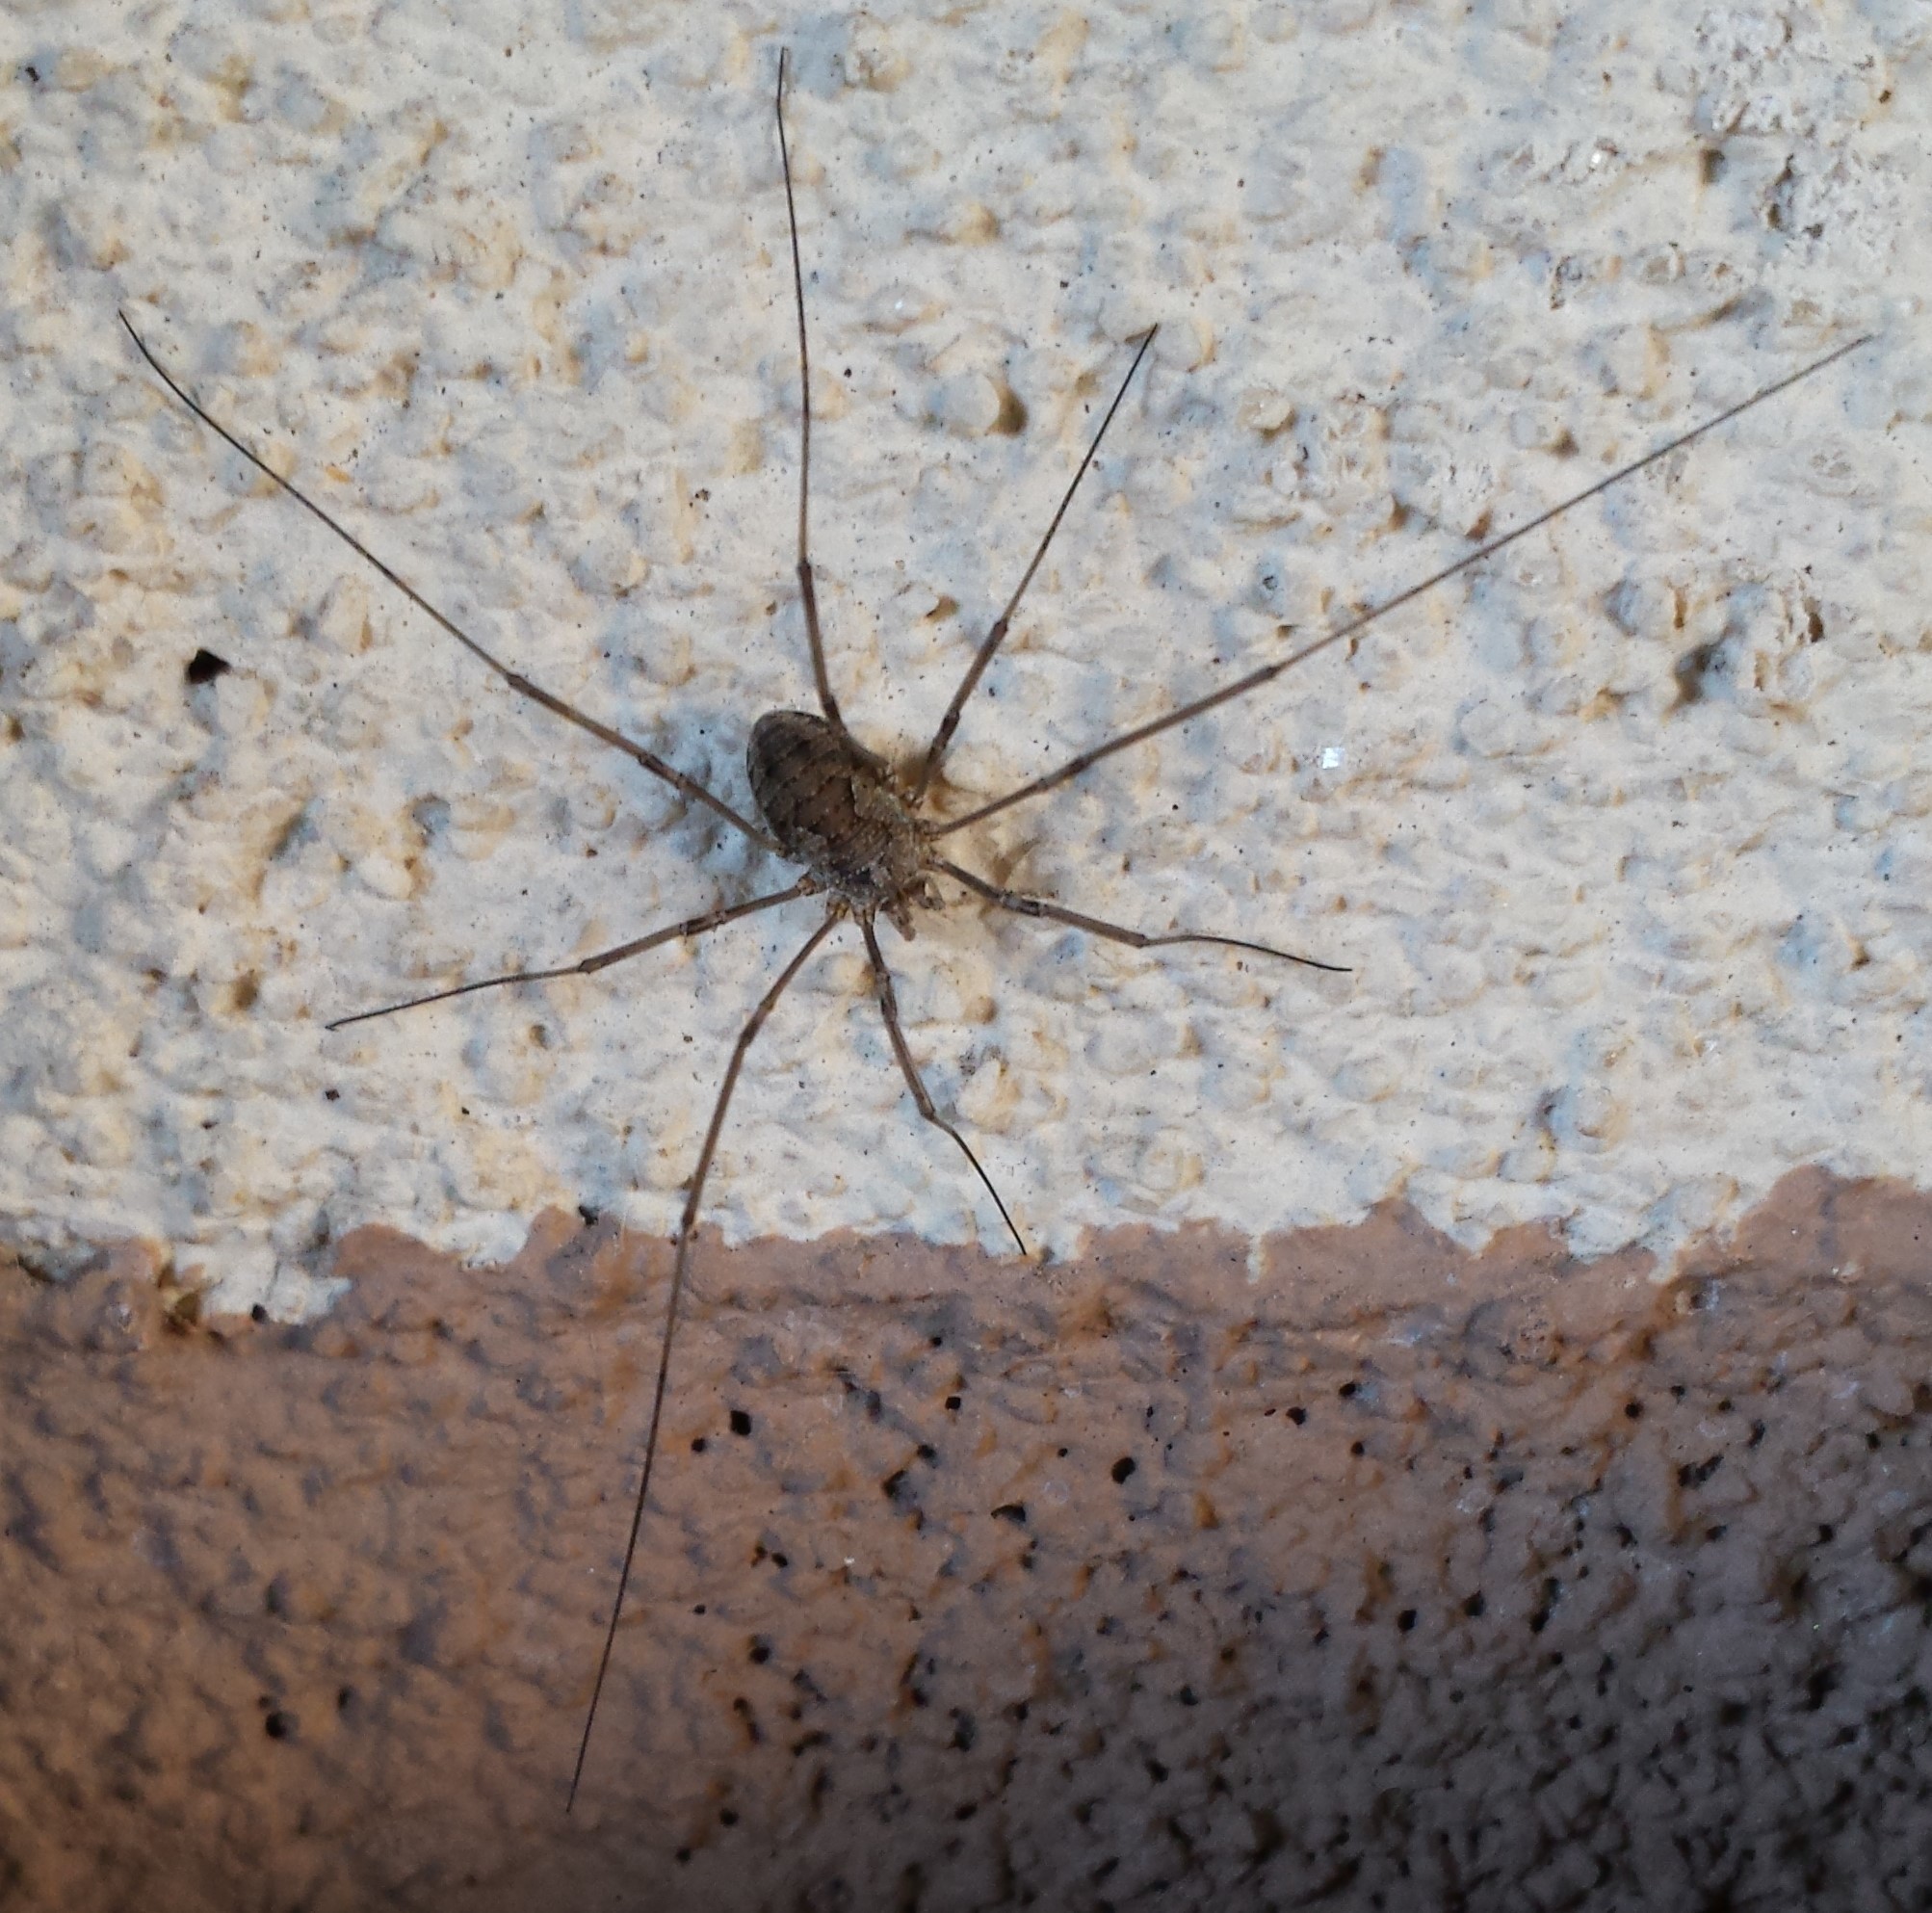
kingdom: Animalia
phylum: Arthropoda
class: Arachnida
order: Opiliones
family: Phalangiidae
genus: Phalangium
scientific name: Phalangium opilio
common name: Daddy longleg
